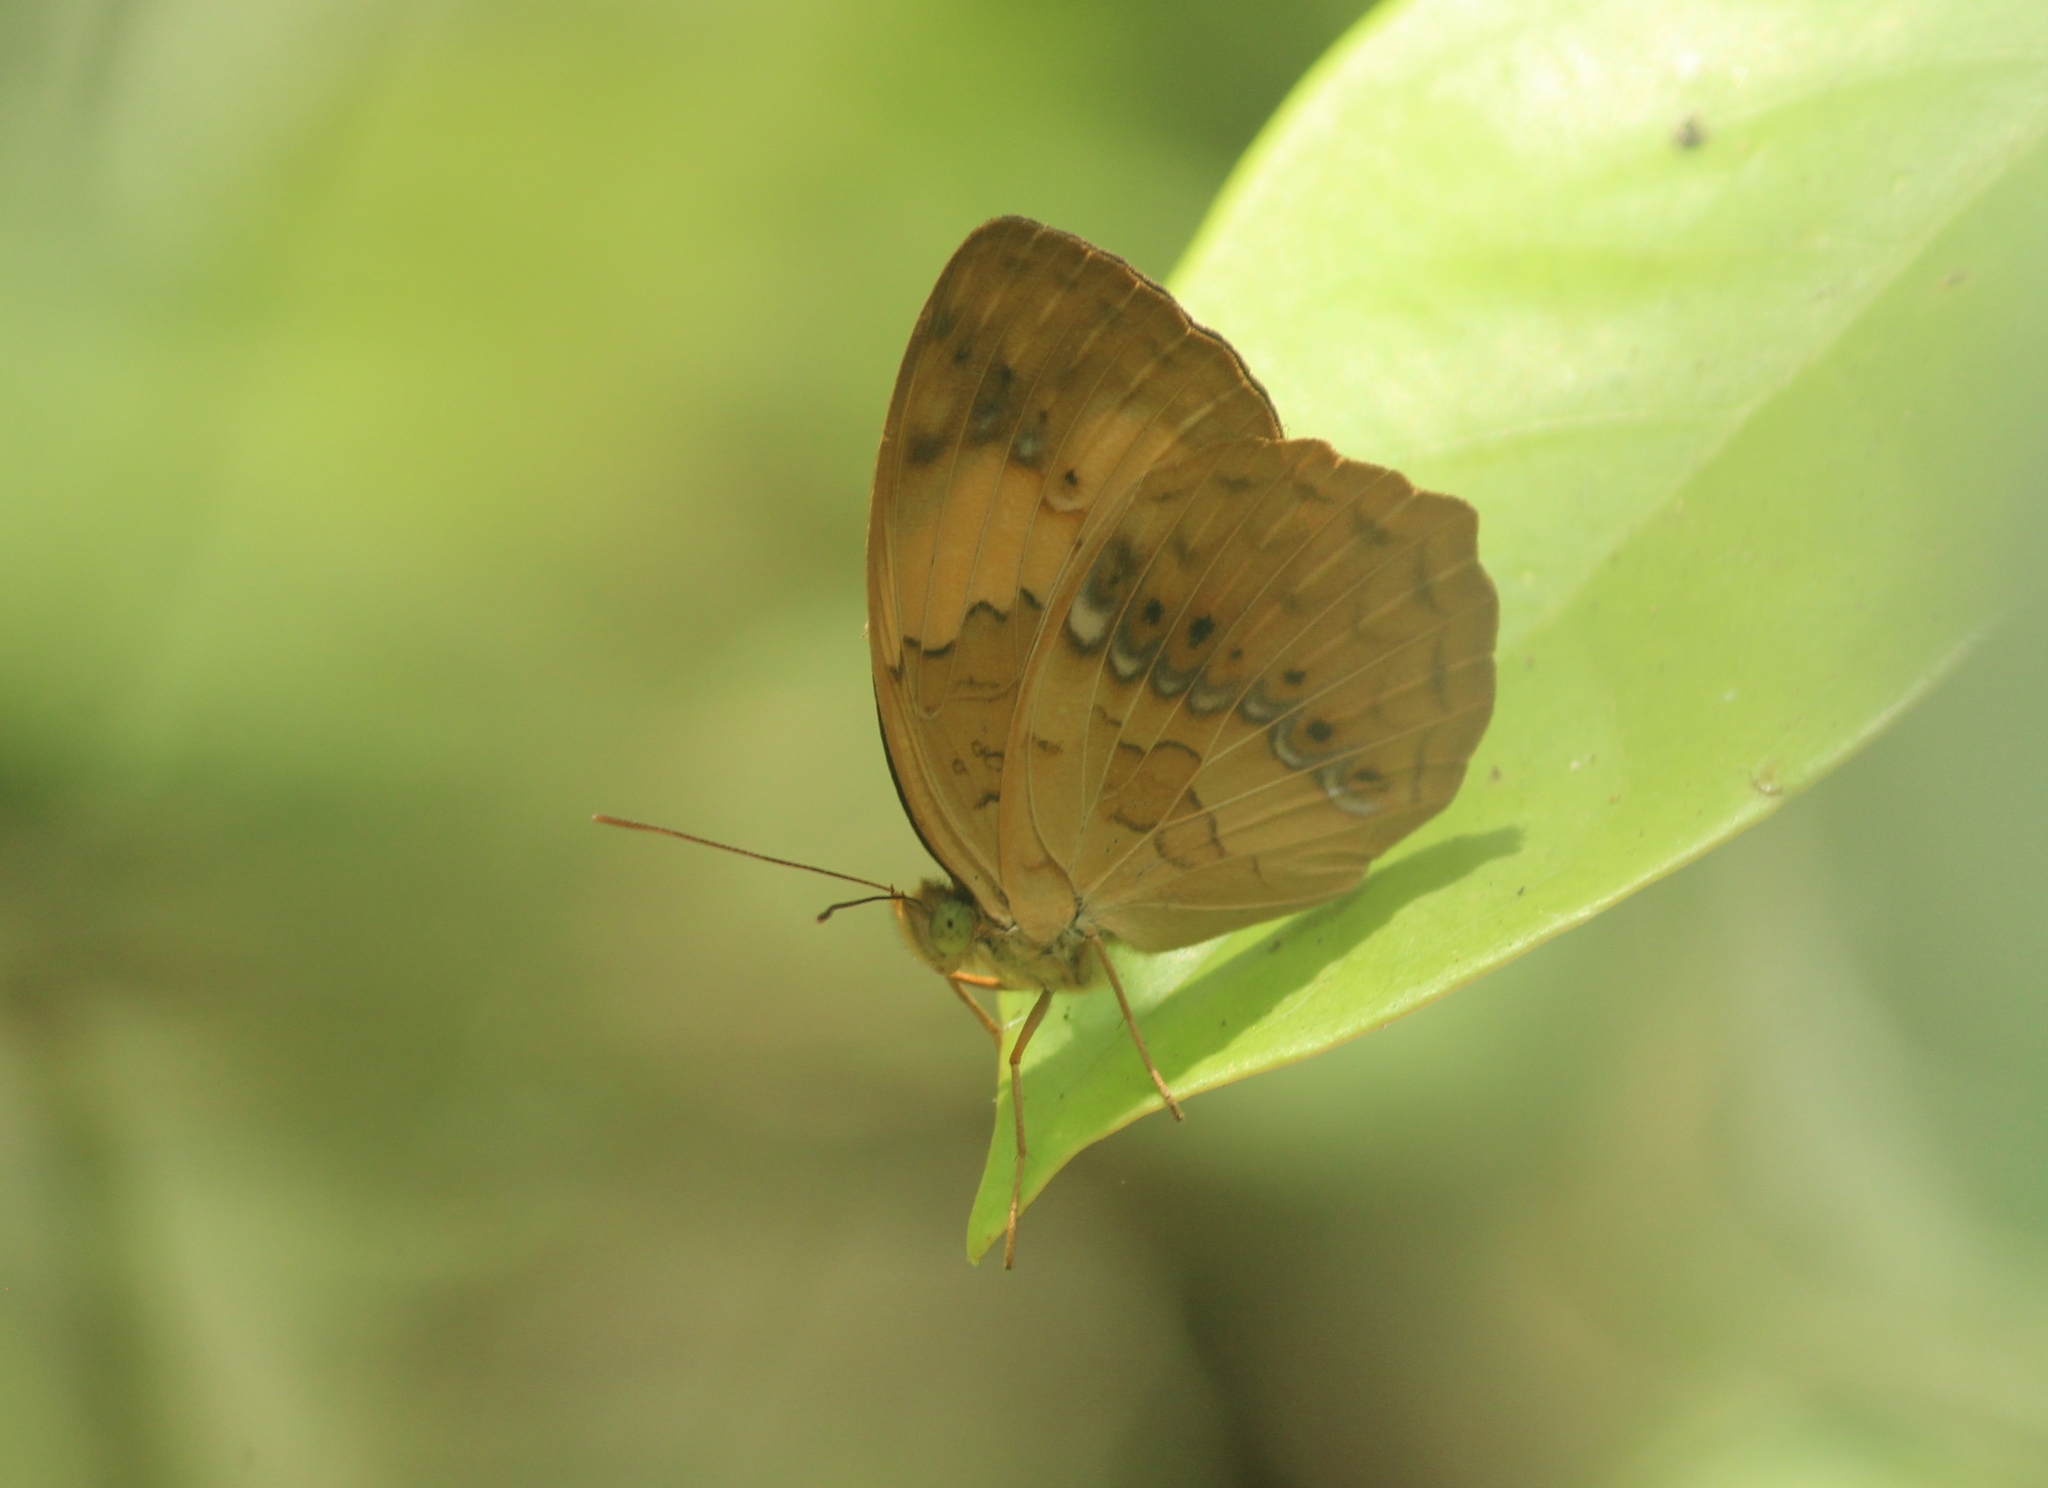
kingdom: Animalia
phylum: Arthropoda
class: Insecta
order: Lepidoptera
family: Nymphalidae
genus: Cupha
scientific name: Cupha erymanthis
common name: Rustic
